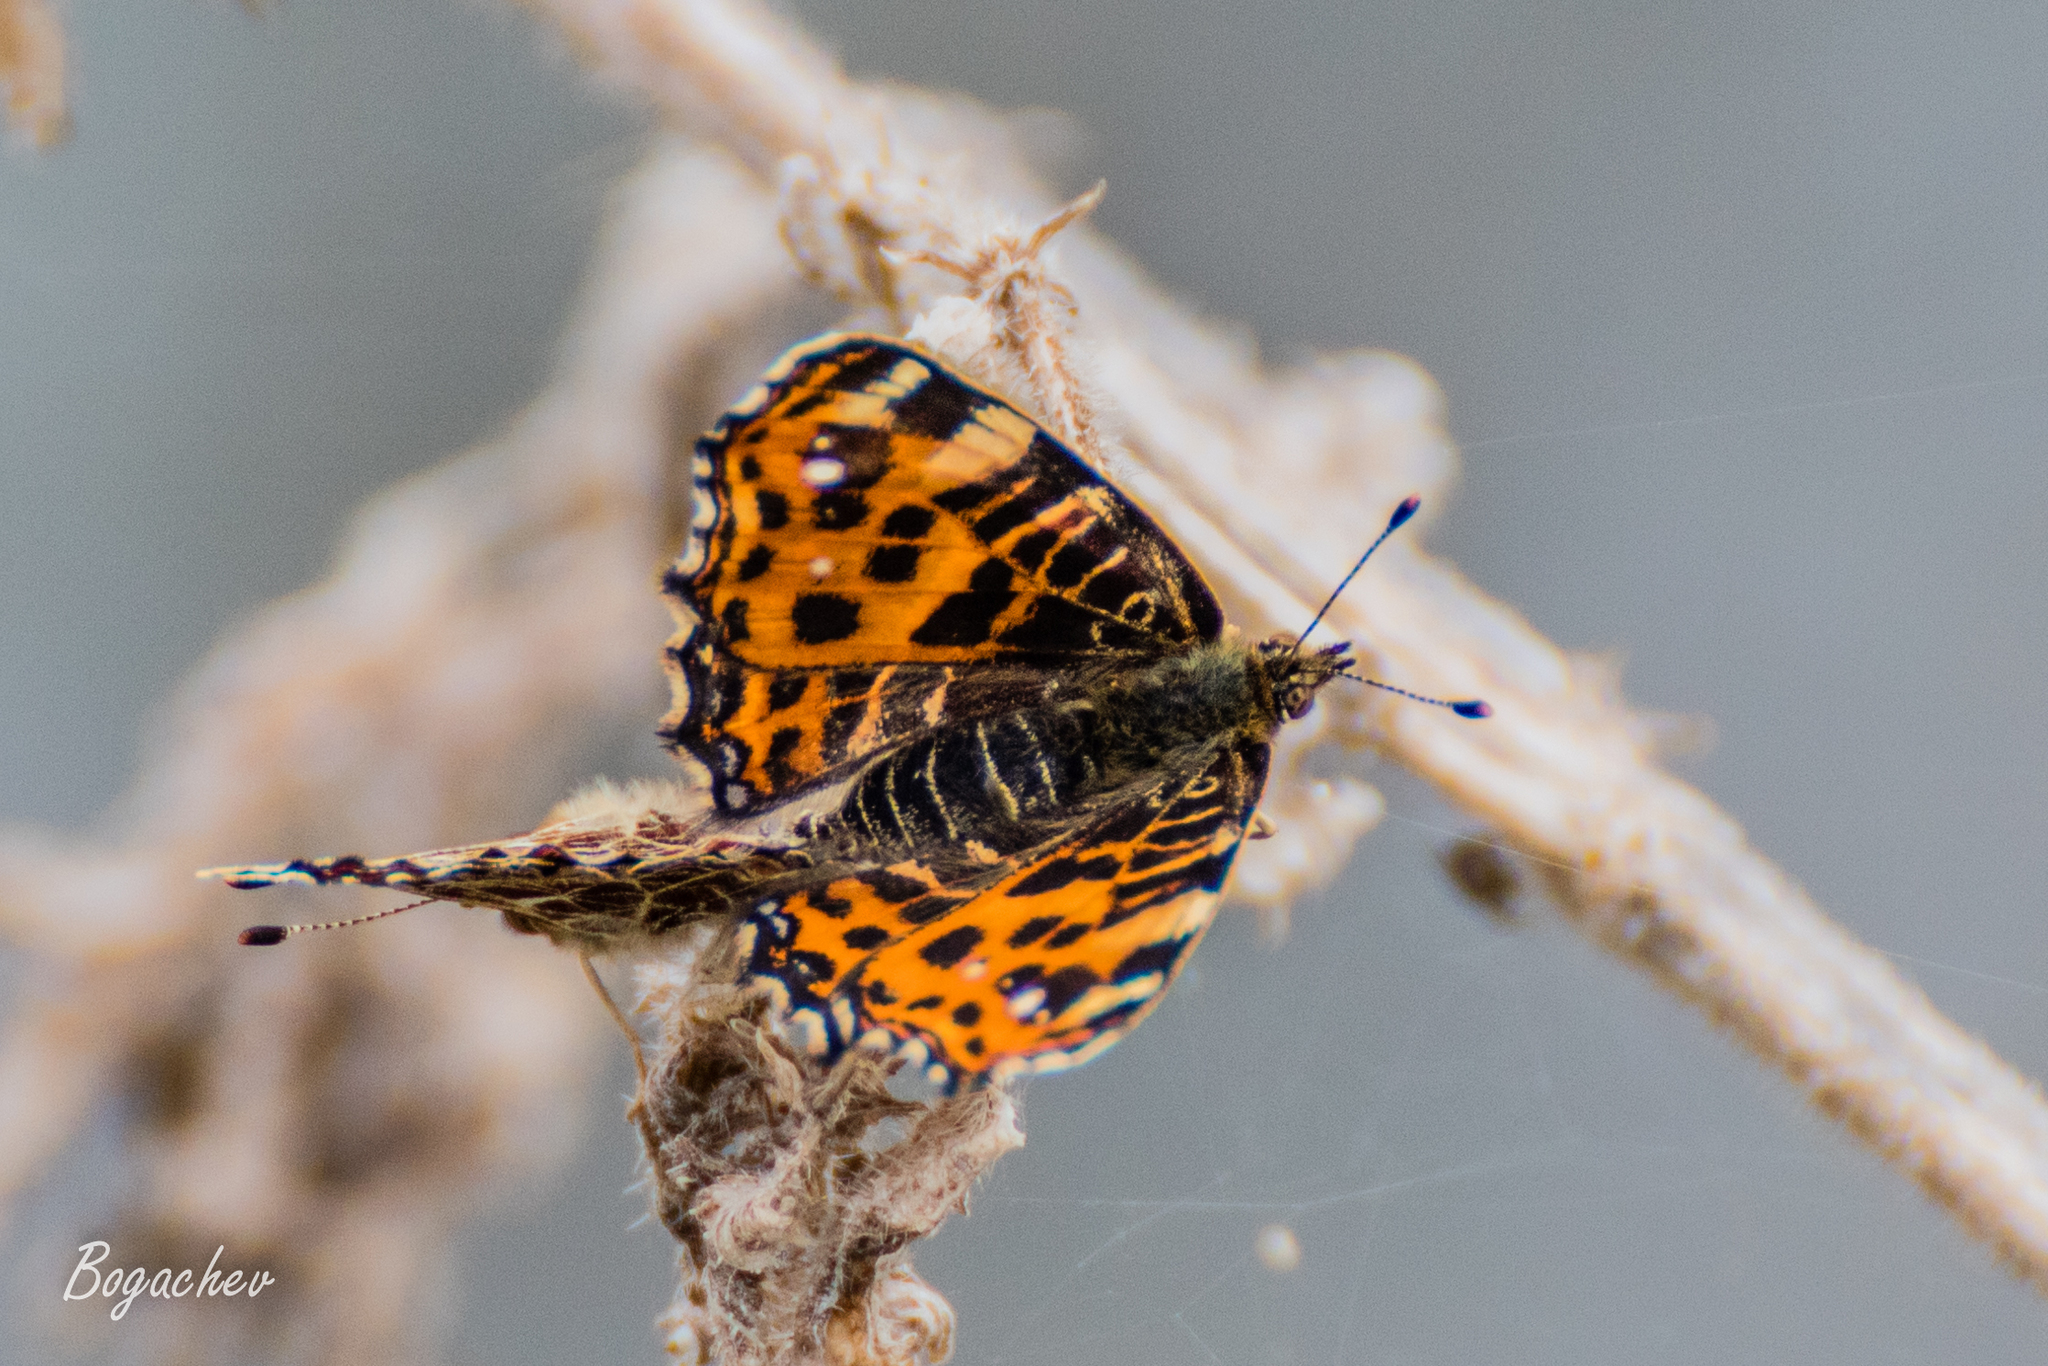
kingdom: Animalia
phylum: Arthropoda
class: Insecta
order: Lepidoptera
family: Nymphalidae
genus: Araschnia
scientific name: Araschnia levana
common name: Map butterfly
